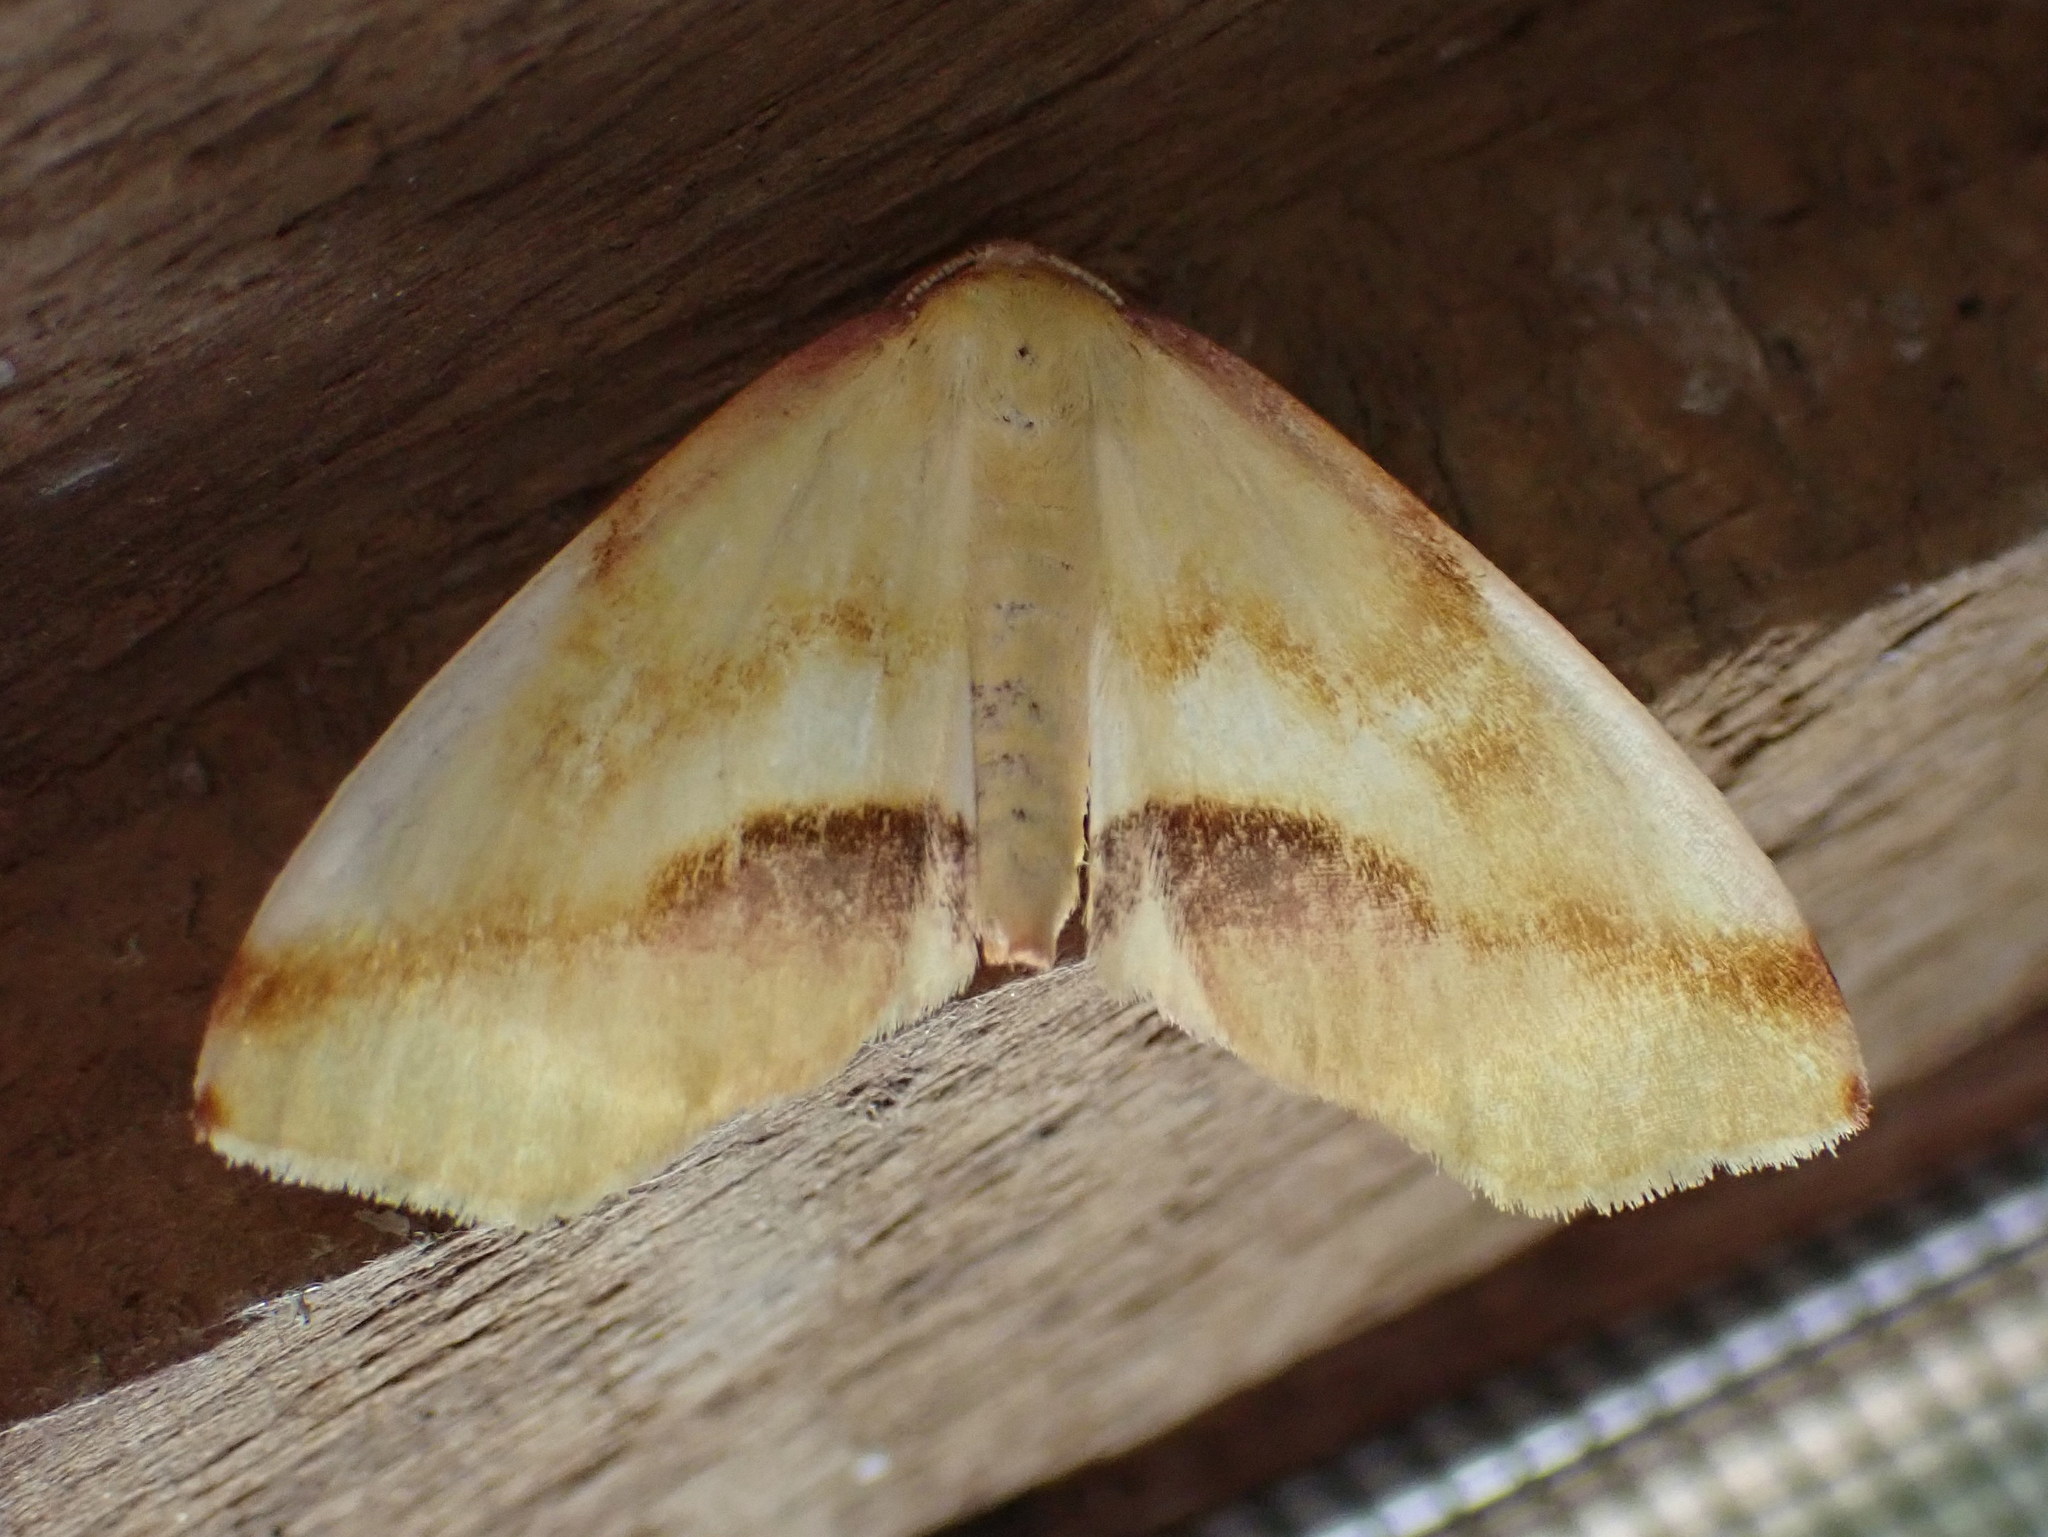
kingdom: Animalia
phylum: Arthropoda
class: Insecta
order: Lepidoptera
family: Geometridae
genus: Plagodis
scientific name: Plagodis serinaria
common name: Lemon plagodis
